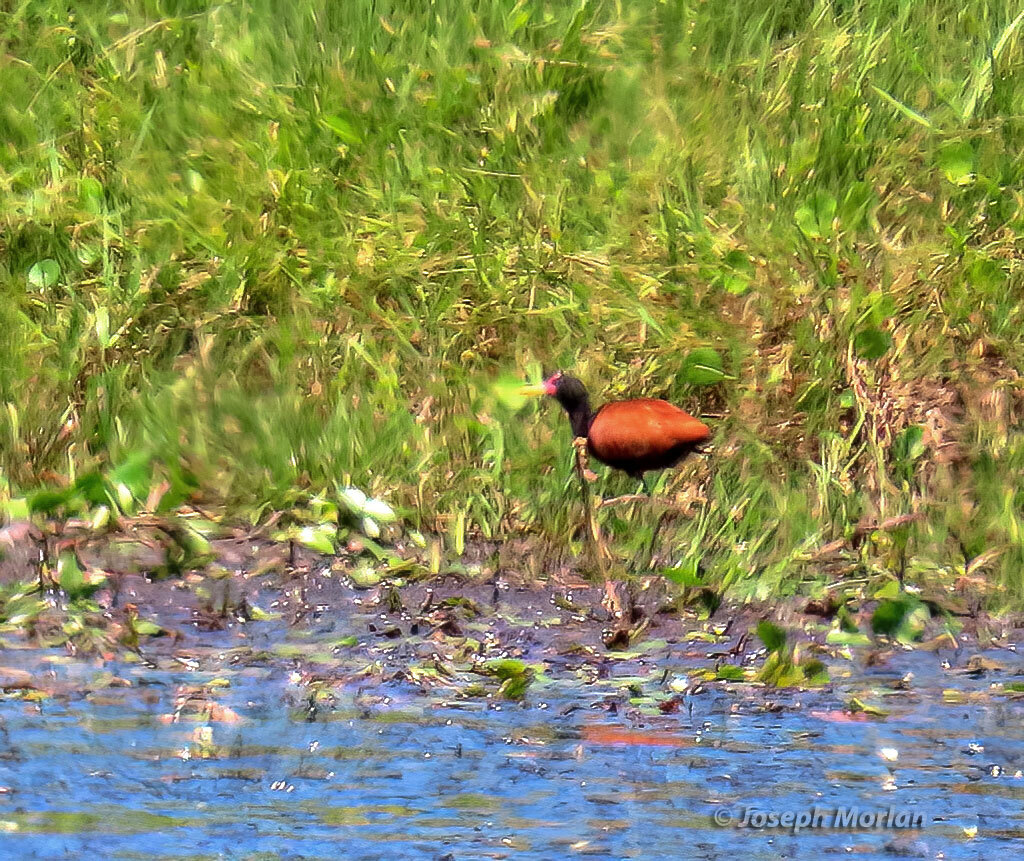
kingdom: Animalia
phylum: Chordata
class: Aves
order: Charadriiformes
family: Jacanidae
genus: Jacana
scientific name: Jacana jacana
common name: Wattled jacana
